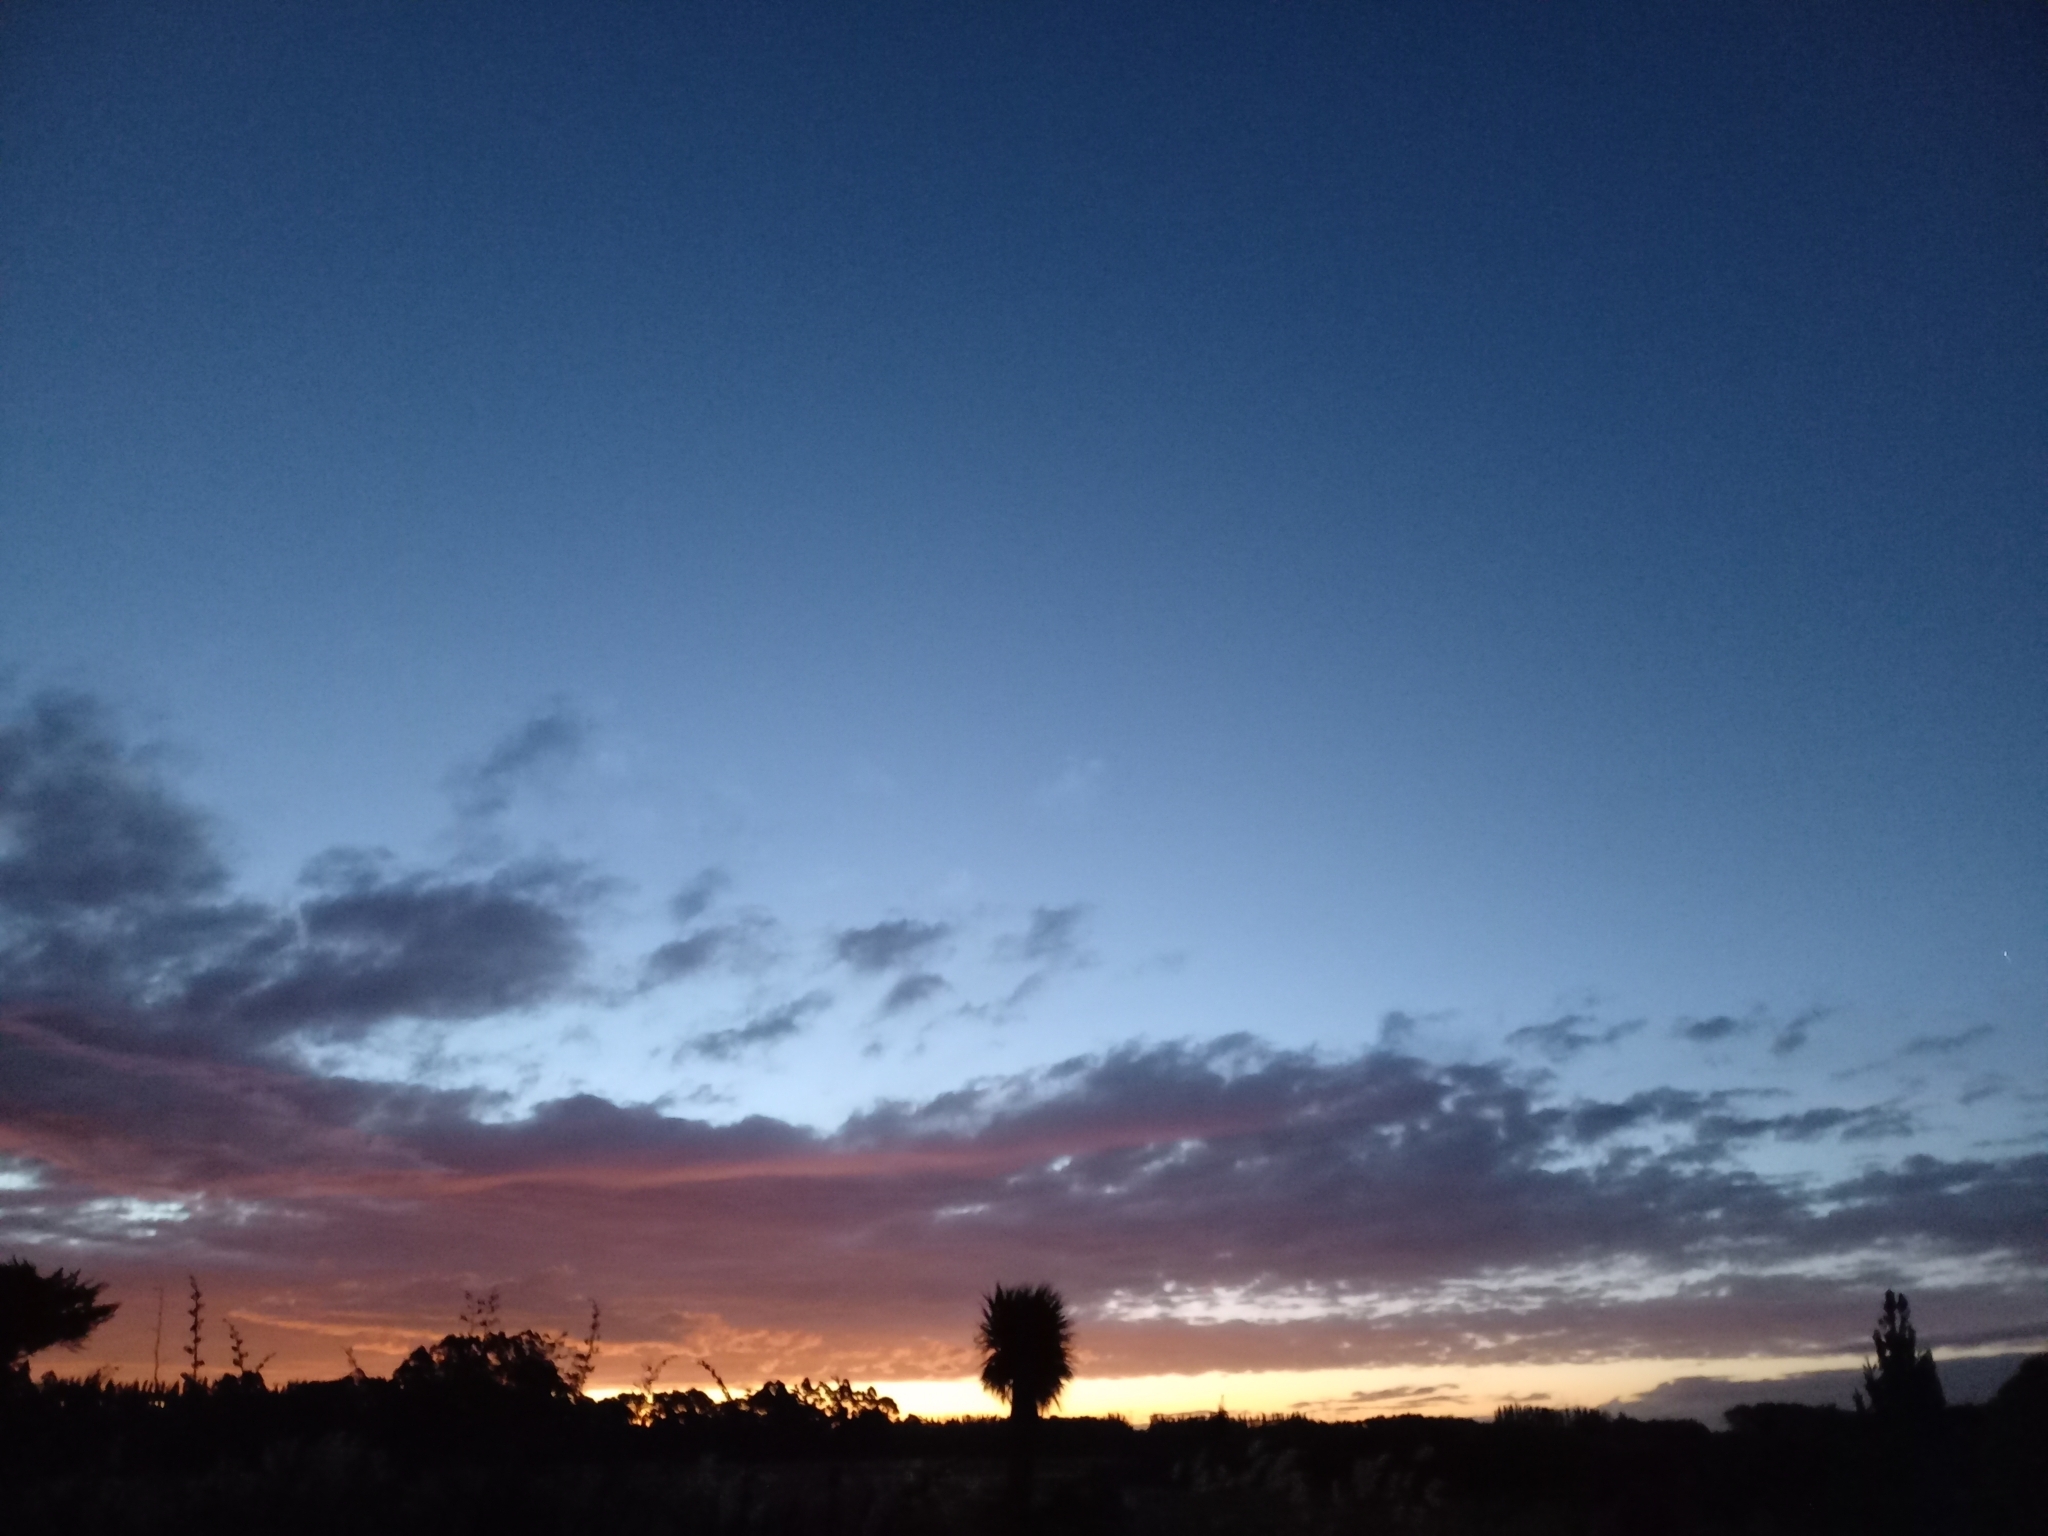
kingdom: Plantae
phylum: Tracheophyta
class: Liliopsida
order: Asparagales
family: Asparagaceae
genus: Cordyline
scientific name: Cordyline australis
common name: Cabbage-palm
